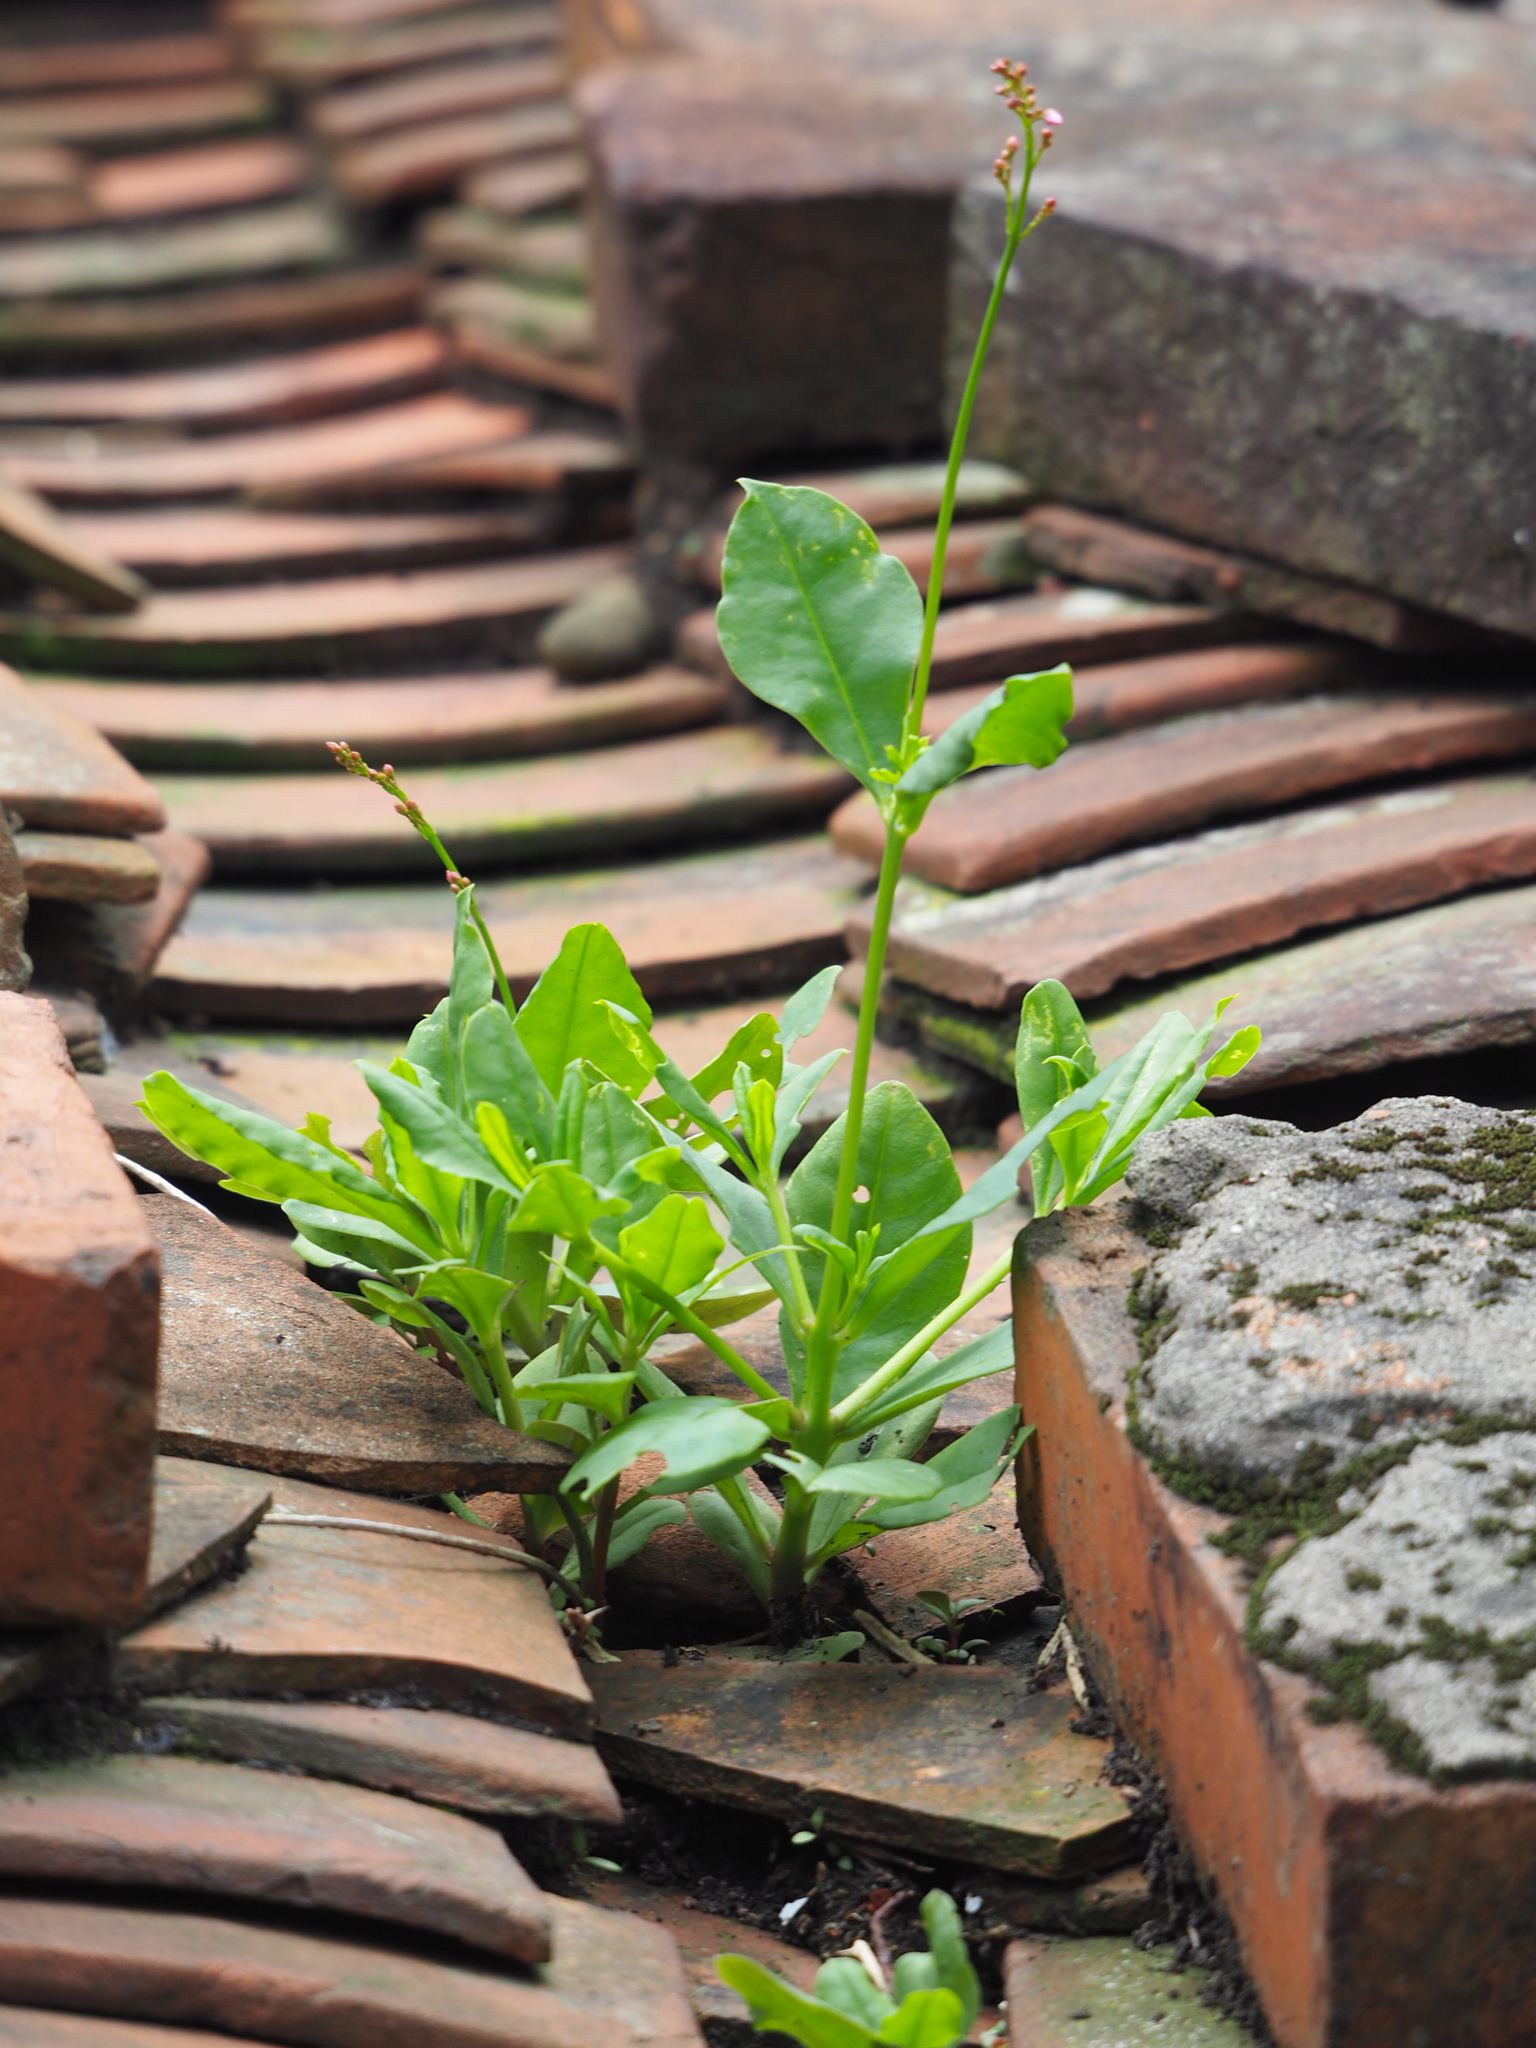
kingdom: Plantae
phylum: Tracheophyta
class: Magnoliopsida
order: Caryophyllales
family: Talinaceae
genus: Talinum
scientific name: Talinum paniculatum
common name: Jewels of opar
